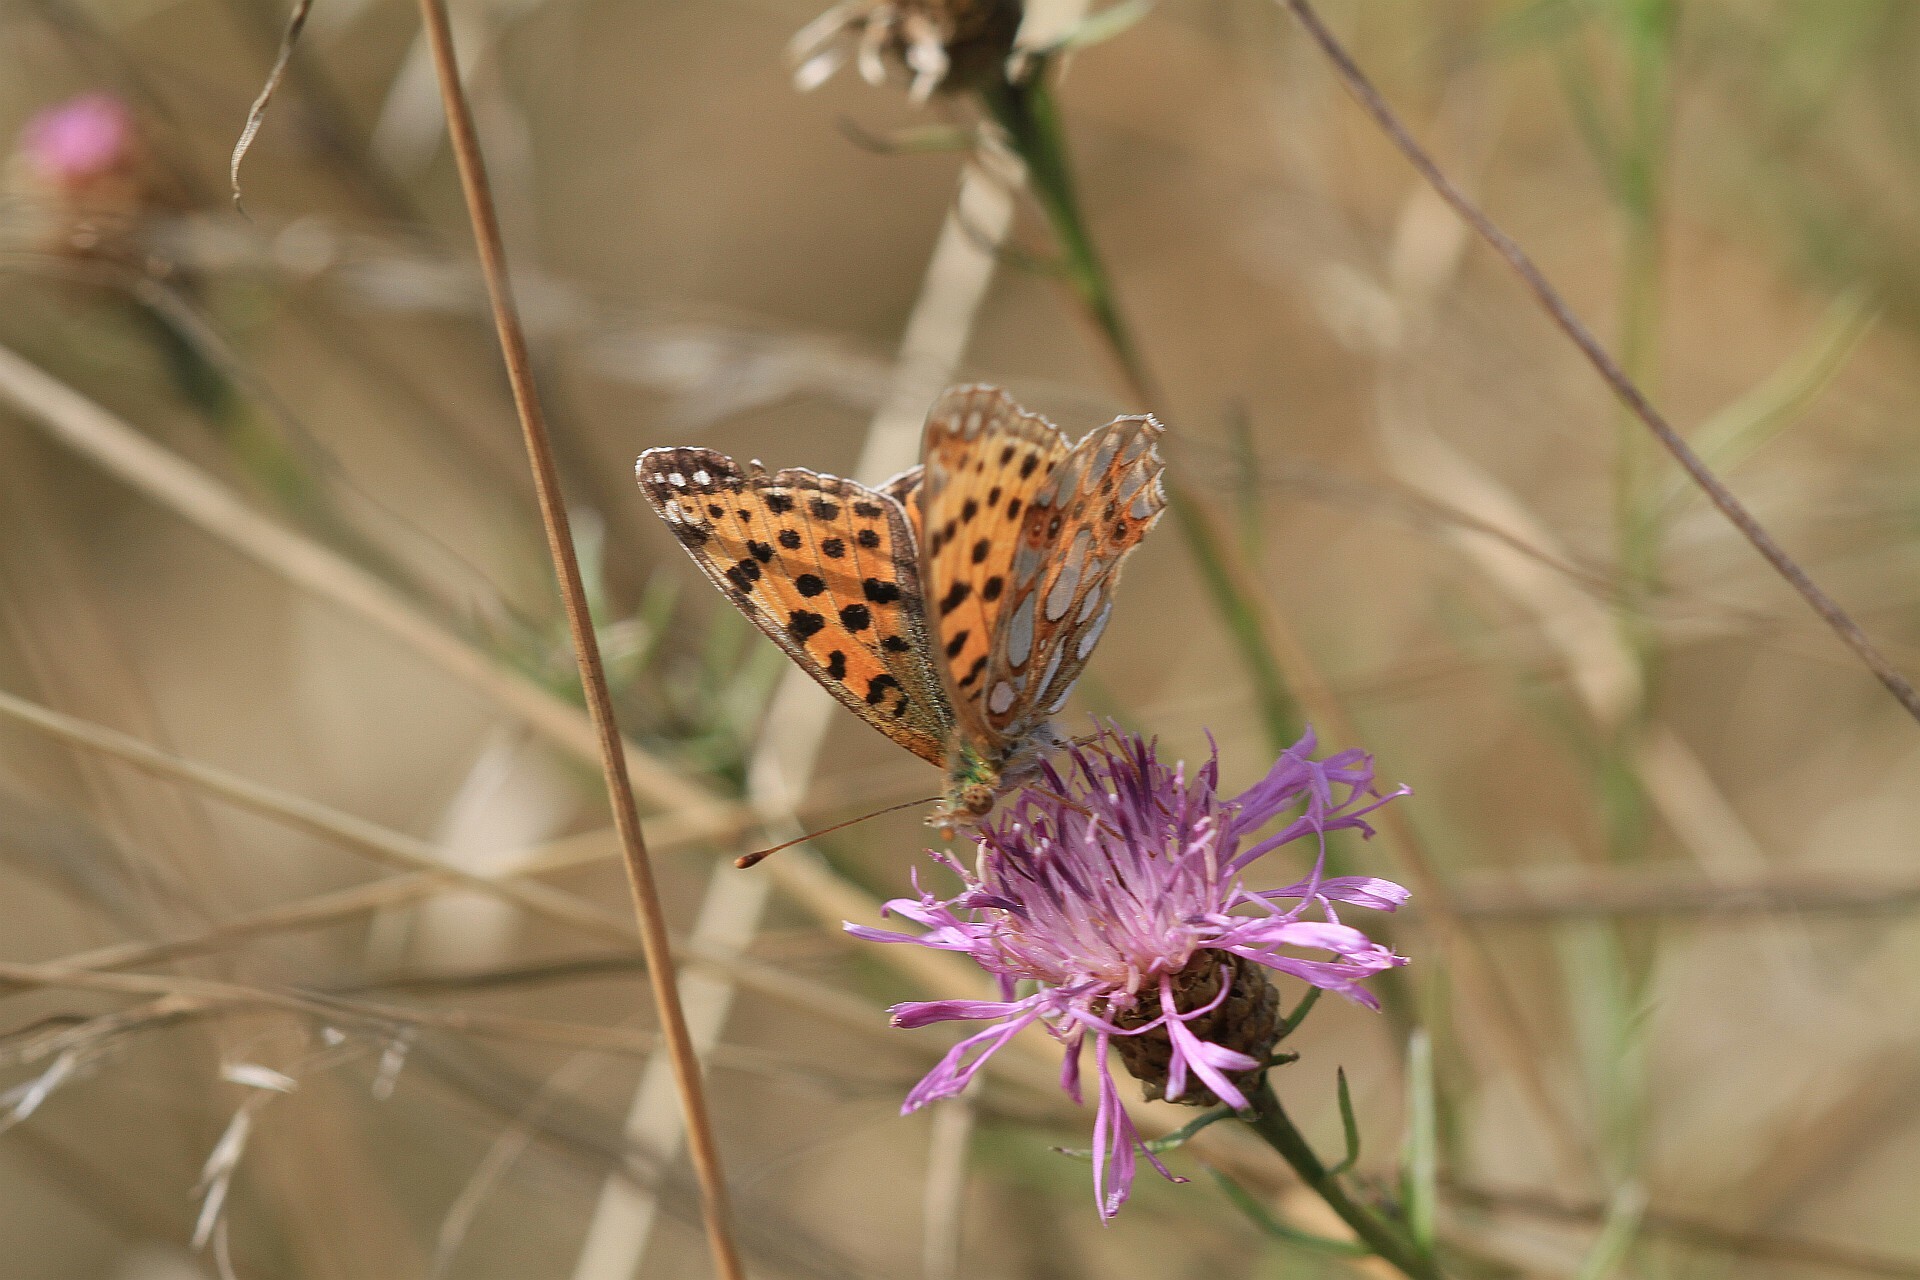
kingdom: Animalia
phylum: Arthropoda
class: Insecta
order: Lepidoptera
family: Nymphalidae
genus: Issoria
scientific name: Issoria lathonia
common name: Queen of spain fritillary
